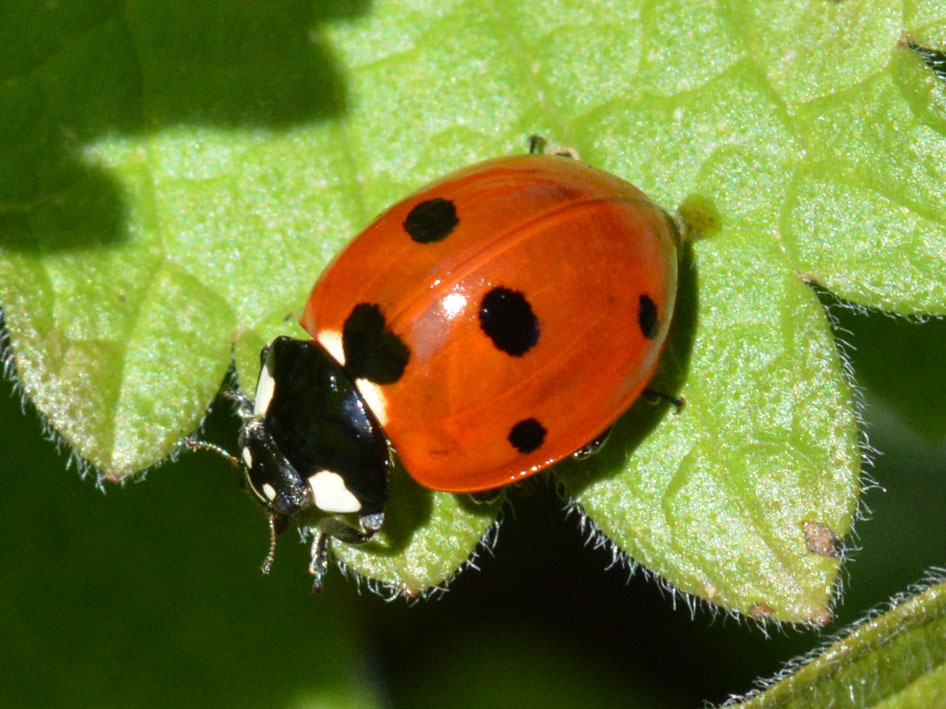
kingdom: Animalia
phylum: Arthropoda
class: Insecta
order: Coleoptera
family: Coccinellidae
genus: Coccinella
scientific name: Coccinella septempunctata
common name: Sevenspotted lady beetle
